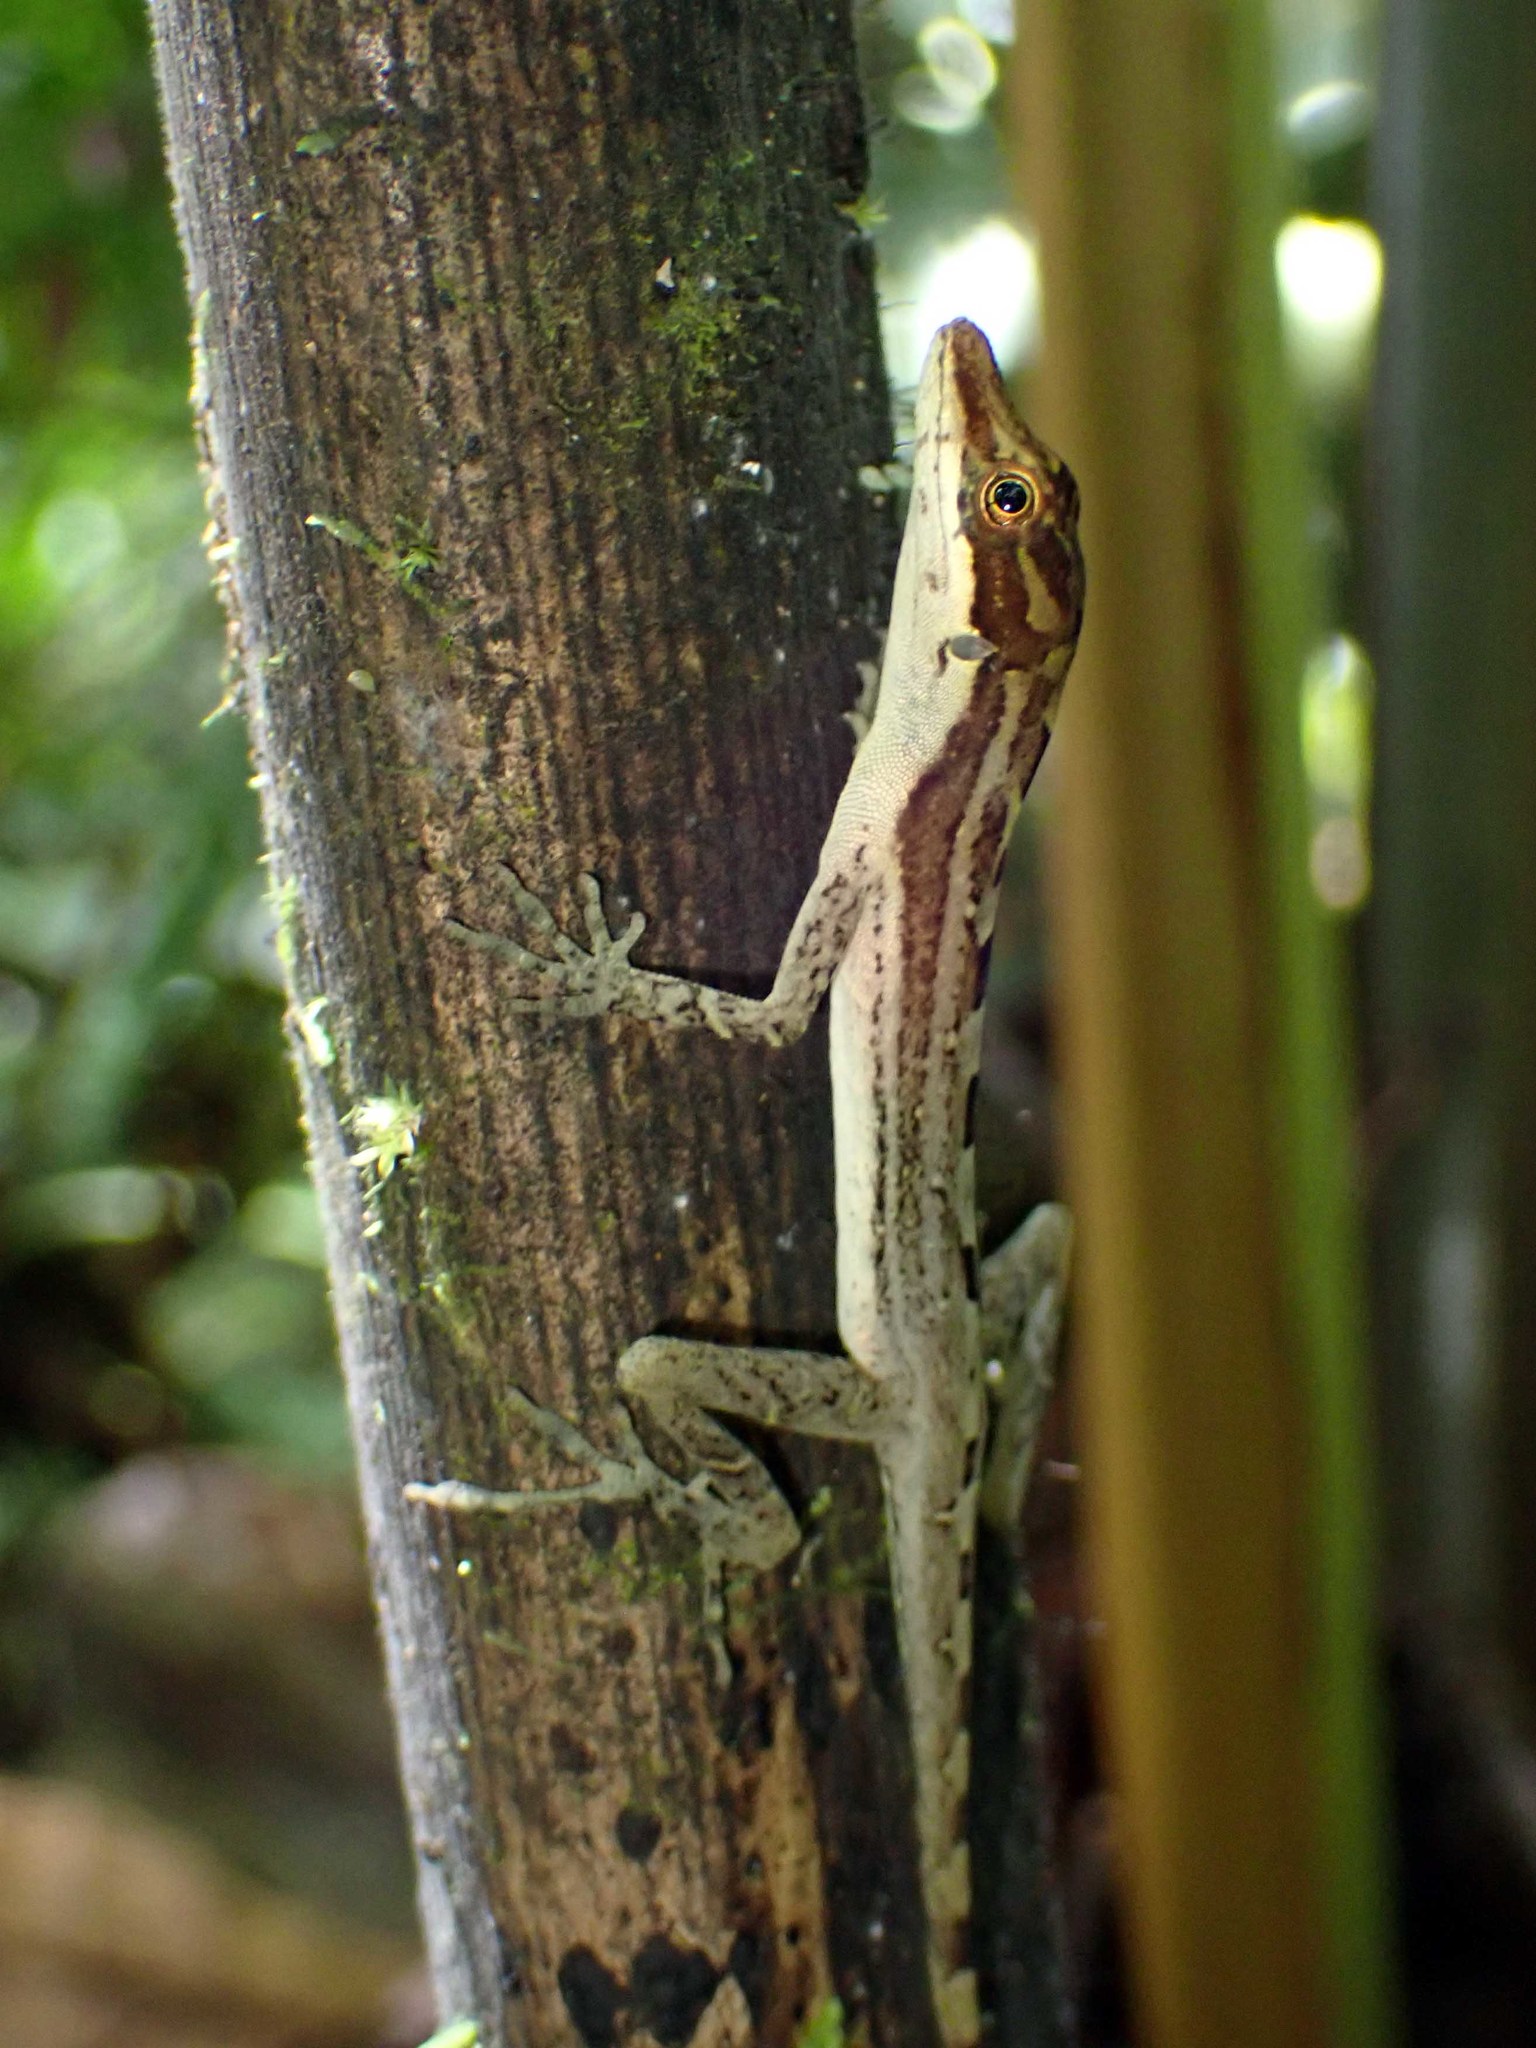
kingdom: Animalia
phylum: Chordata
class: Squamata
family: Dactyloidae
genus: Anolis
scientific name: Anolis limifrons
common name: Border anole
